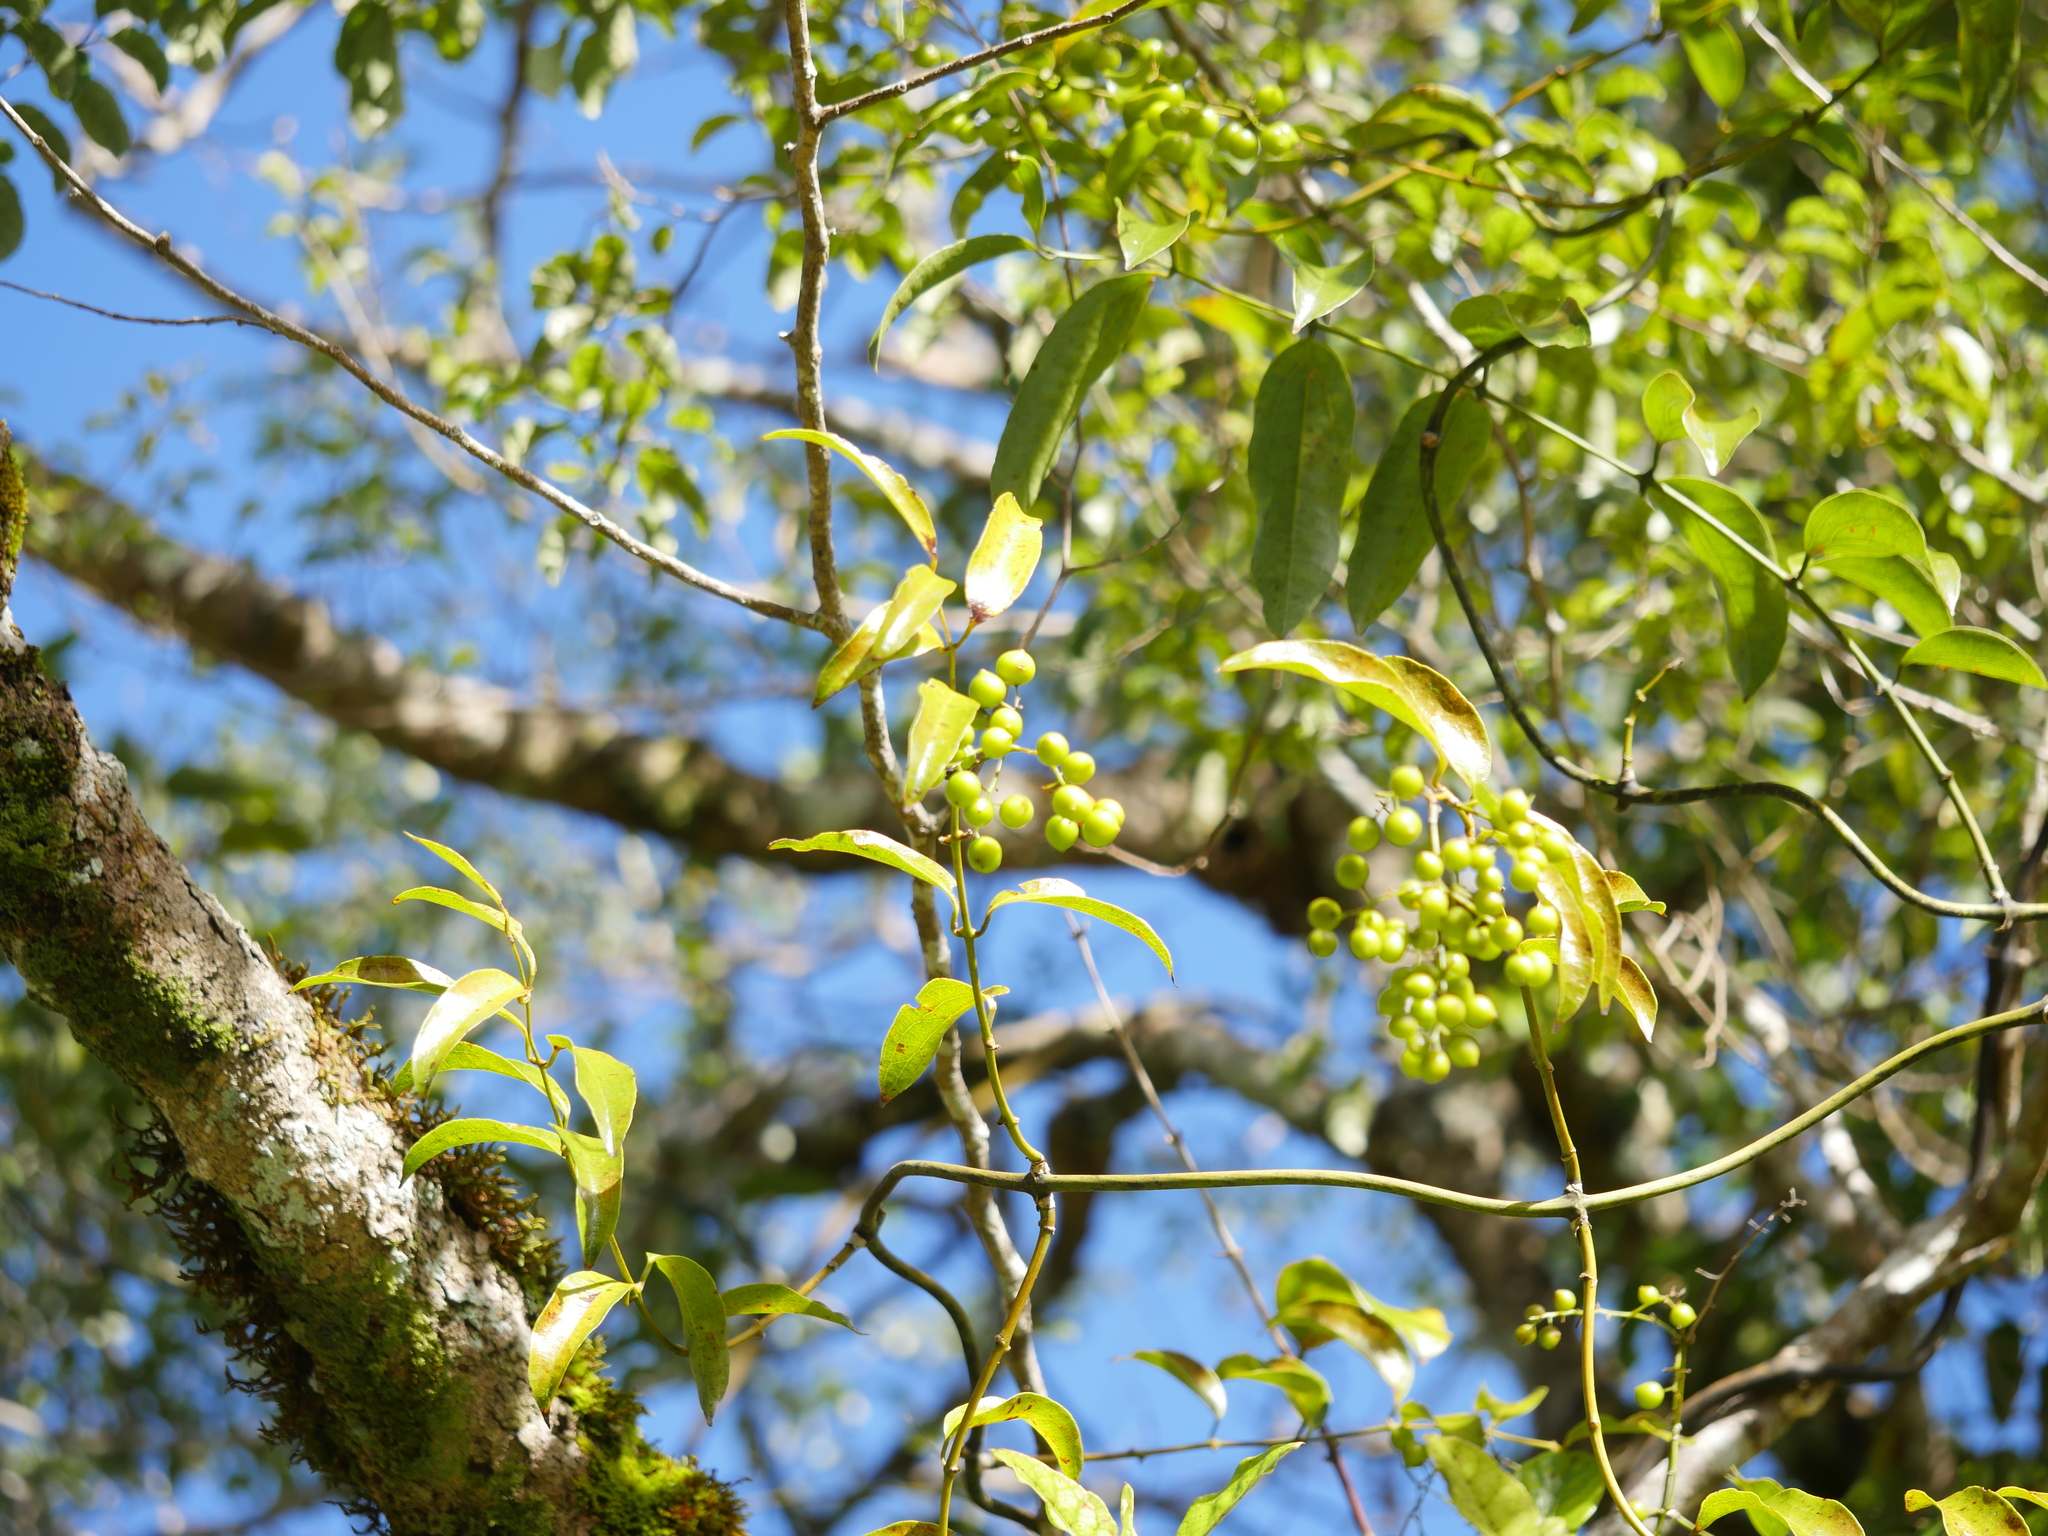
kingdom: Plantae
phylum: Tracheophyta
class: Liliopsida
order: Liliales
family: Ripogonaceae
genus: Ripogonum
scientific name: Ripogonum scandens
